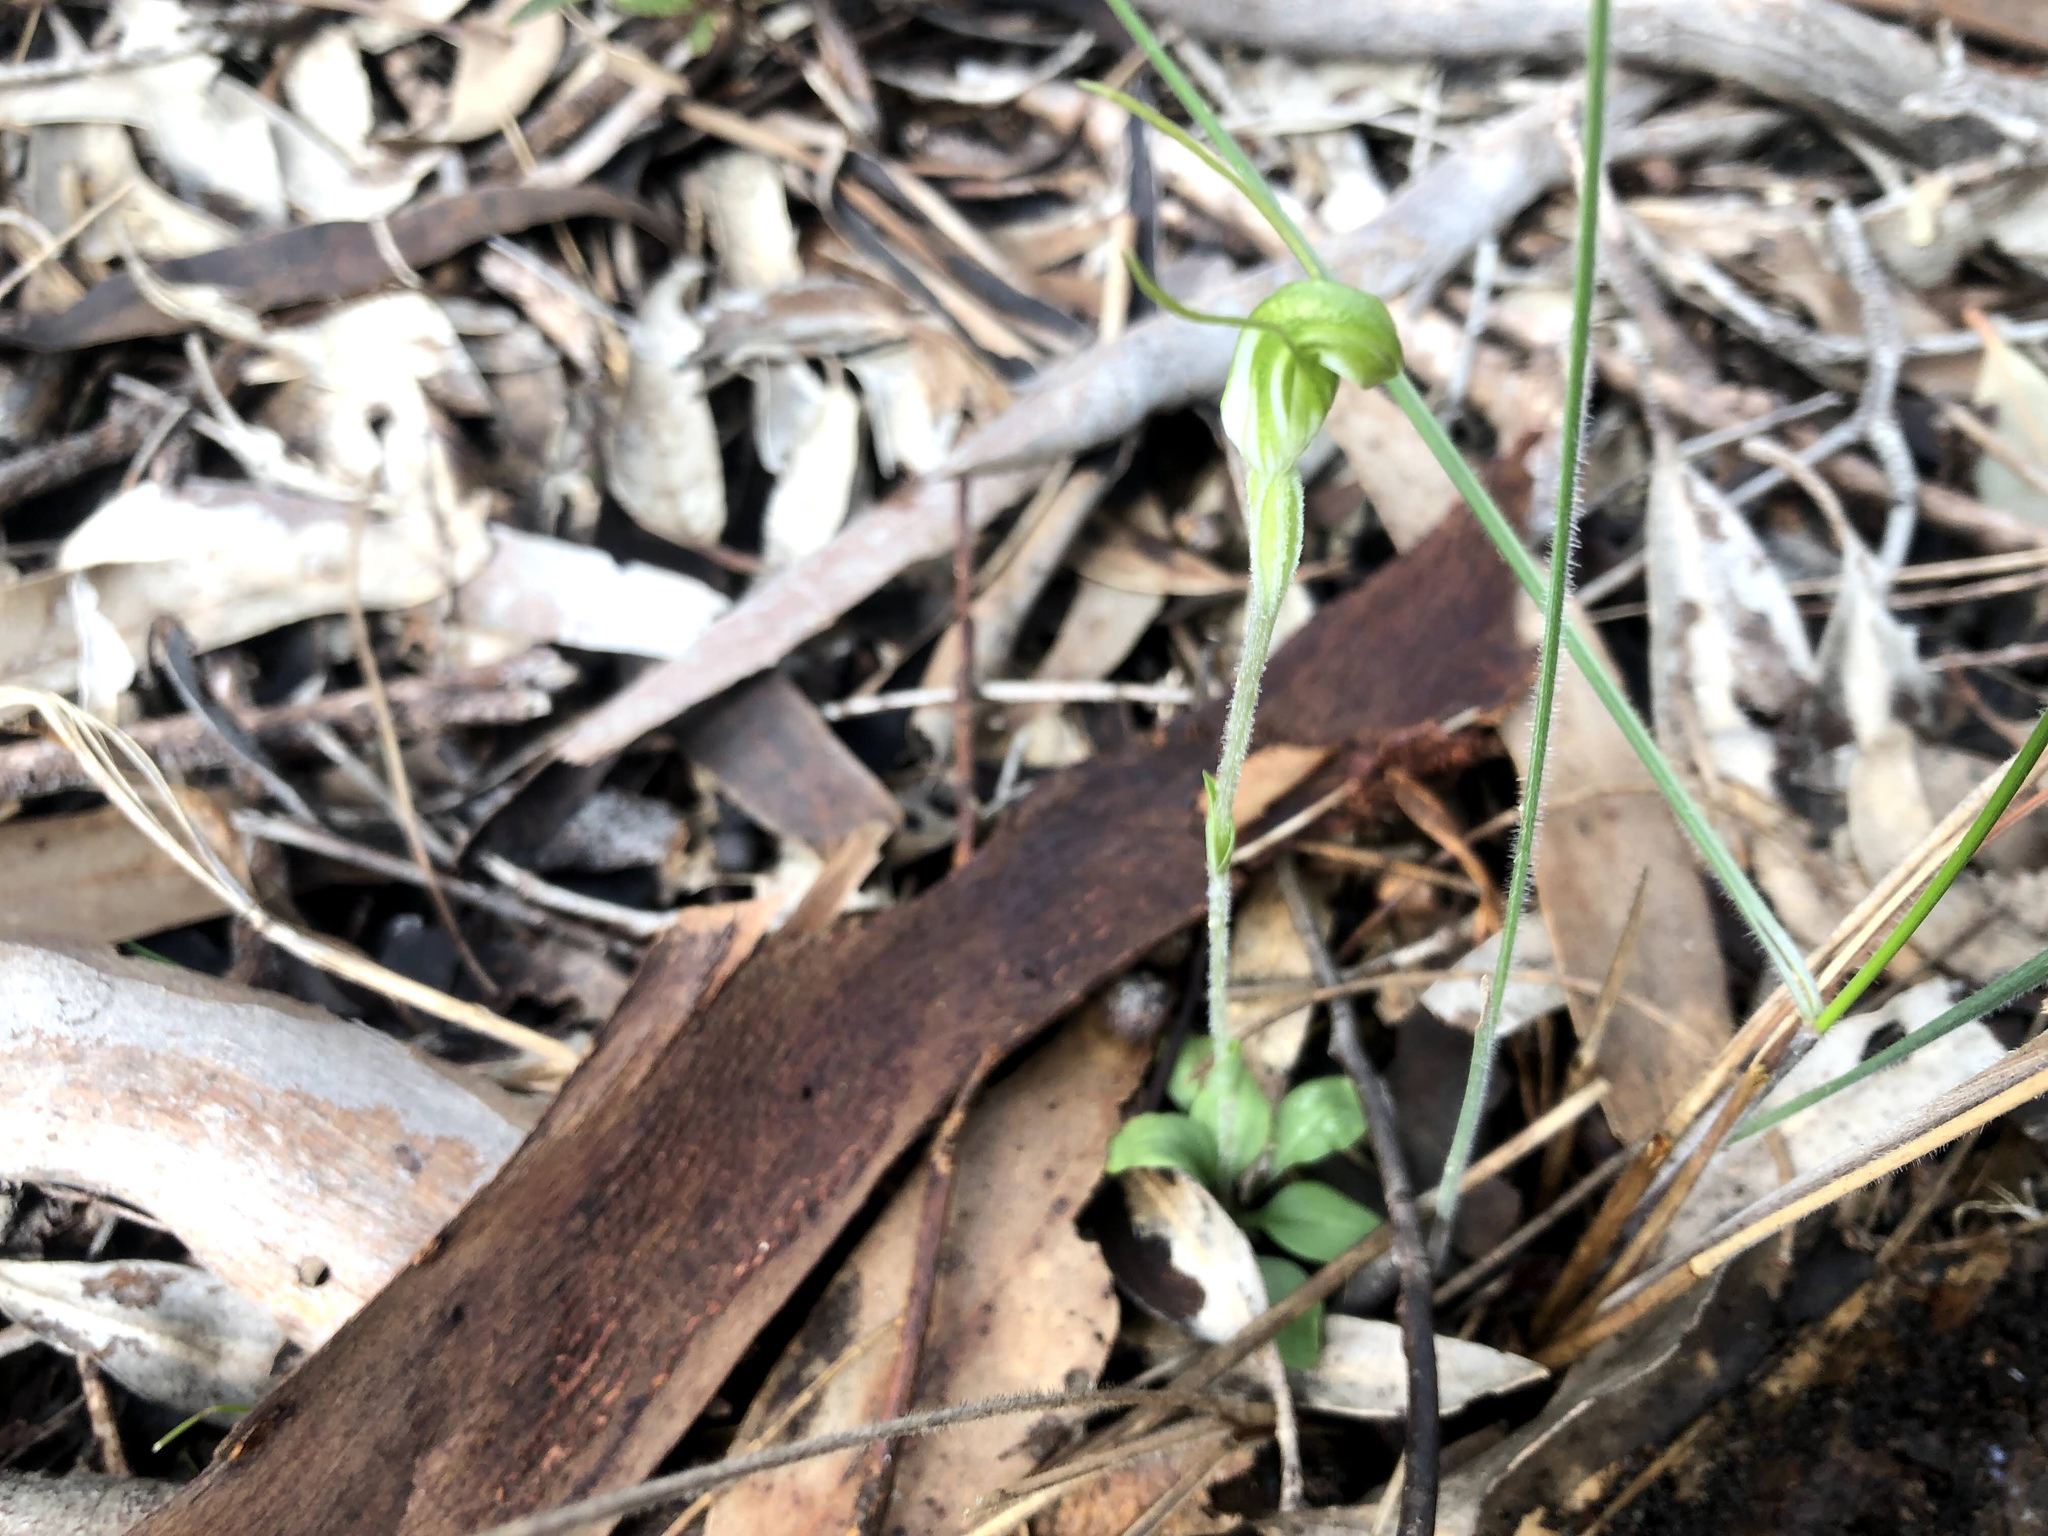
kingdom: Plantae
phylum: Tracheophyta
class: Liliopsida
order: Asparagales
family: Orchidaceae
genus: Pterostylis
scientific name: Pterostylis nana
